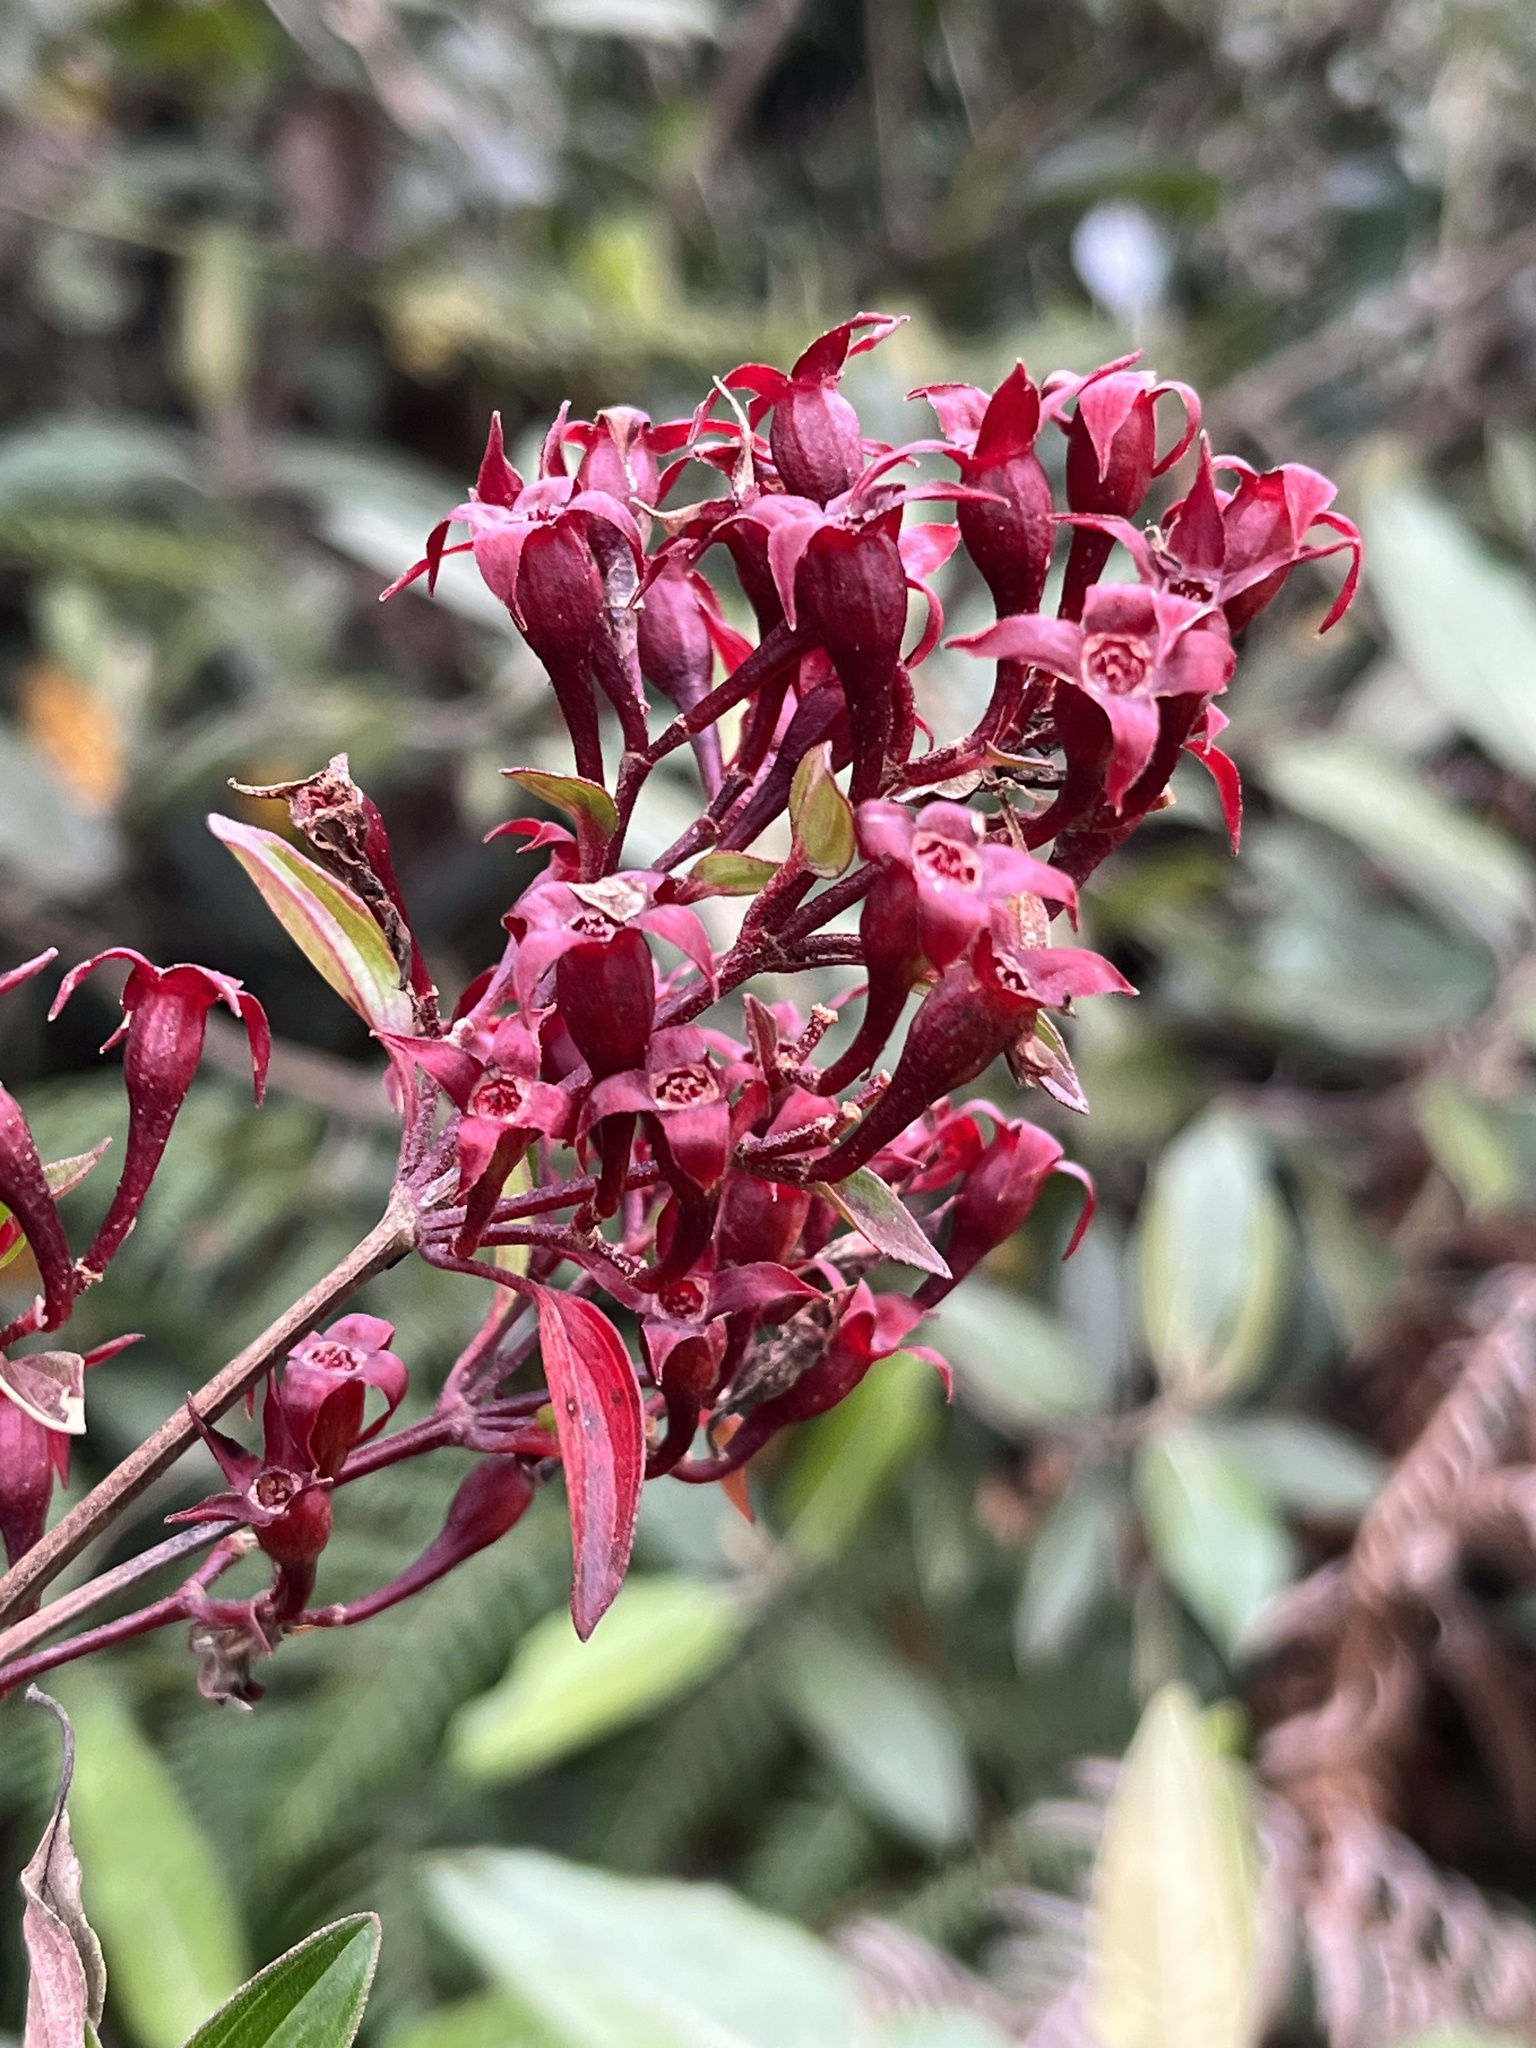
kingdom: Plantae
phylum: Tracheophyta
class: Magnoliopsida
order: Myrtales
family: Melastomataceae
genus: Monochaetum
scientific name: Monochaetum myrtoideum
